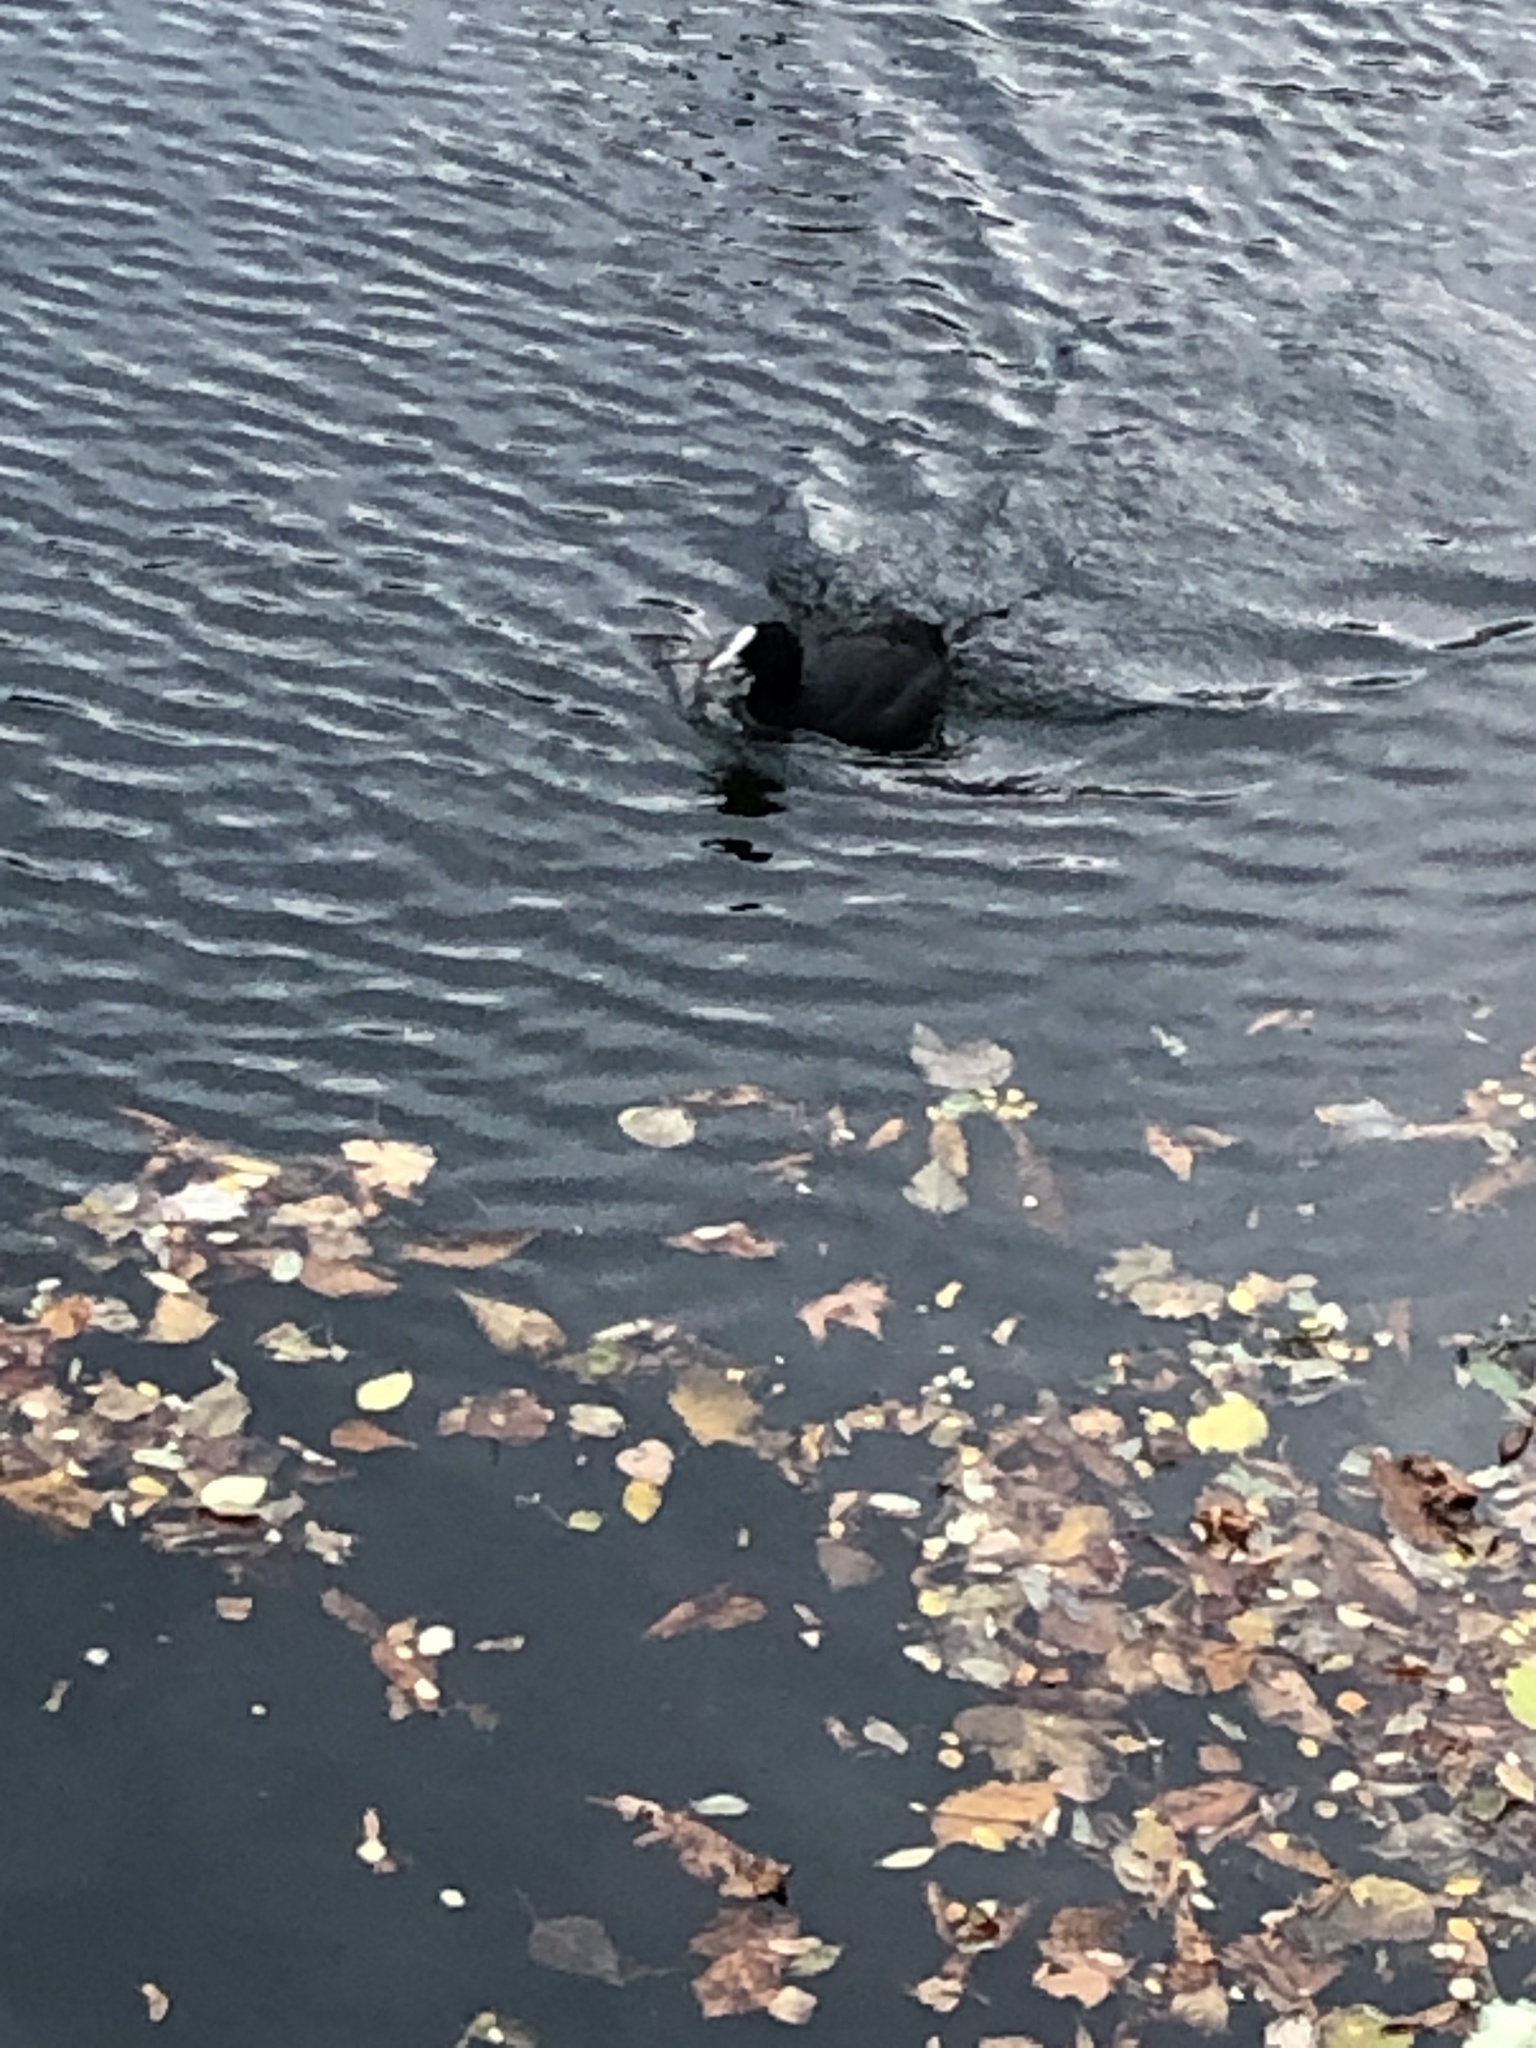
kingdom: Animalia
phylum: Chordata
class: Aves
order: Gruiformes
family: Rallidae
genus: Fulica
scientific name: Fulica atra
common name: Eurasian coot
